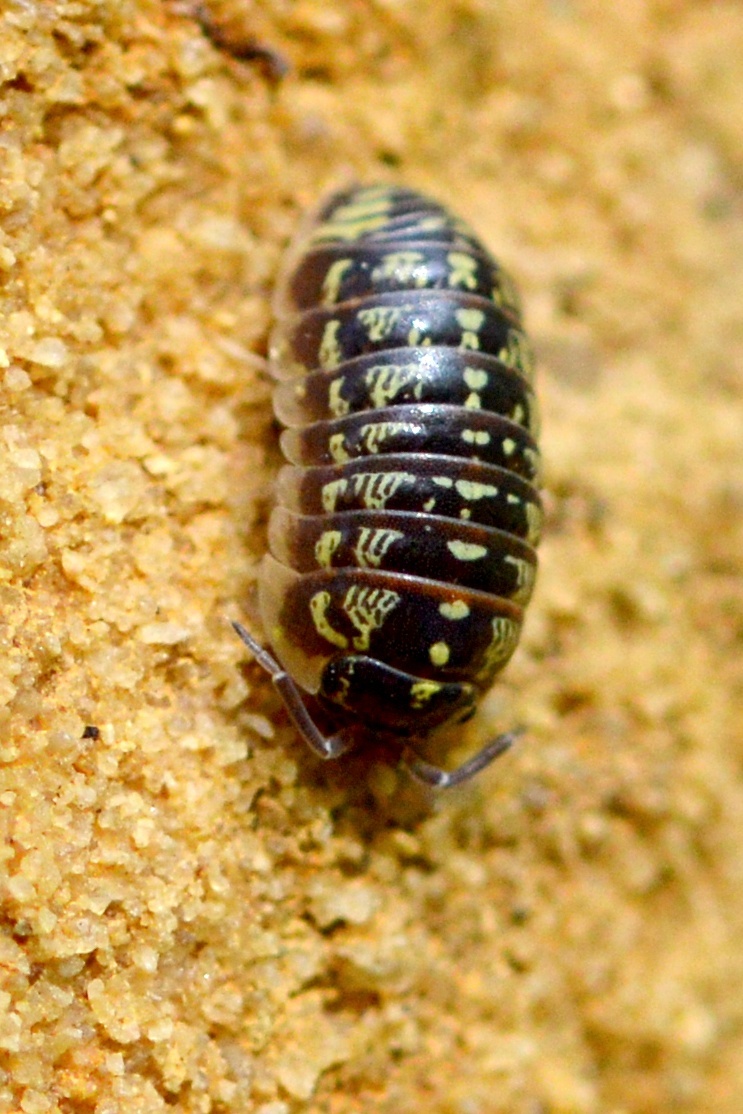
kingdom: Animalia
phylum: Arthropoda
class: Malacostraca
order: Isopoda
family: Armadillidiidae
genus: Armadillidium
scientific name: Armadillidium versicolor
